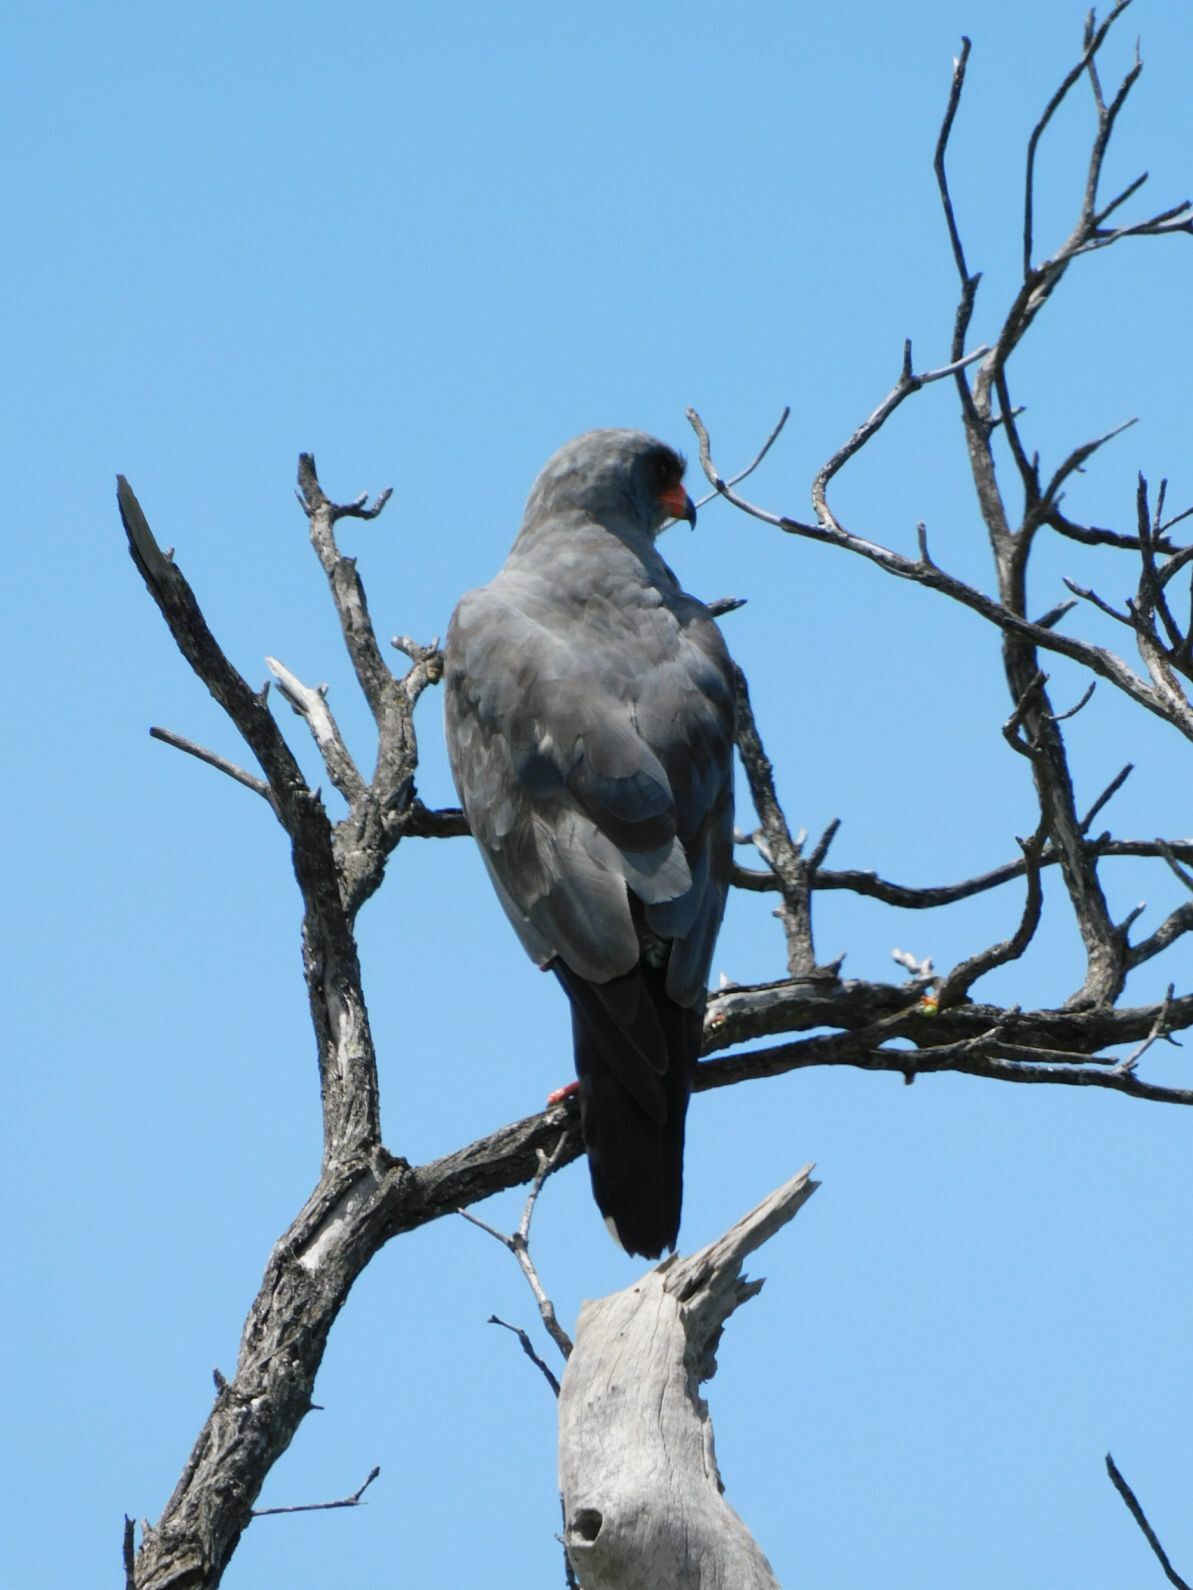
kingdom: Animalia
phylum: Chordata
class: Aves
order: Accipitriformes
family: Accipitridae
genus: Melierax
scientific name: Melierax metabates
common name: Dark chanting-goshawk
